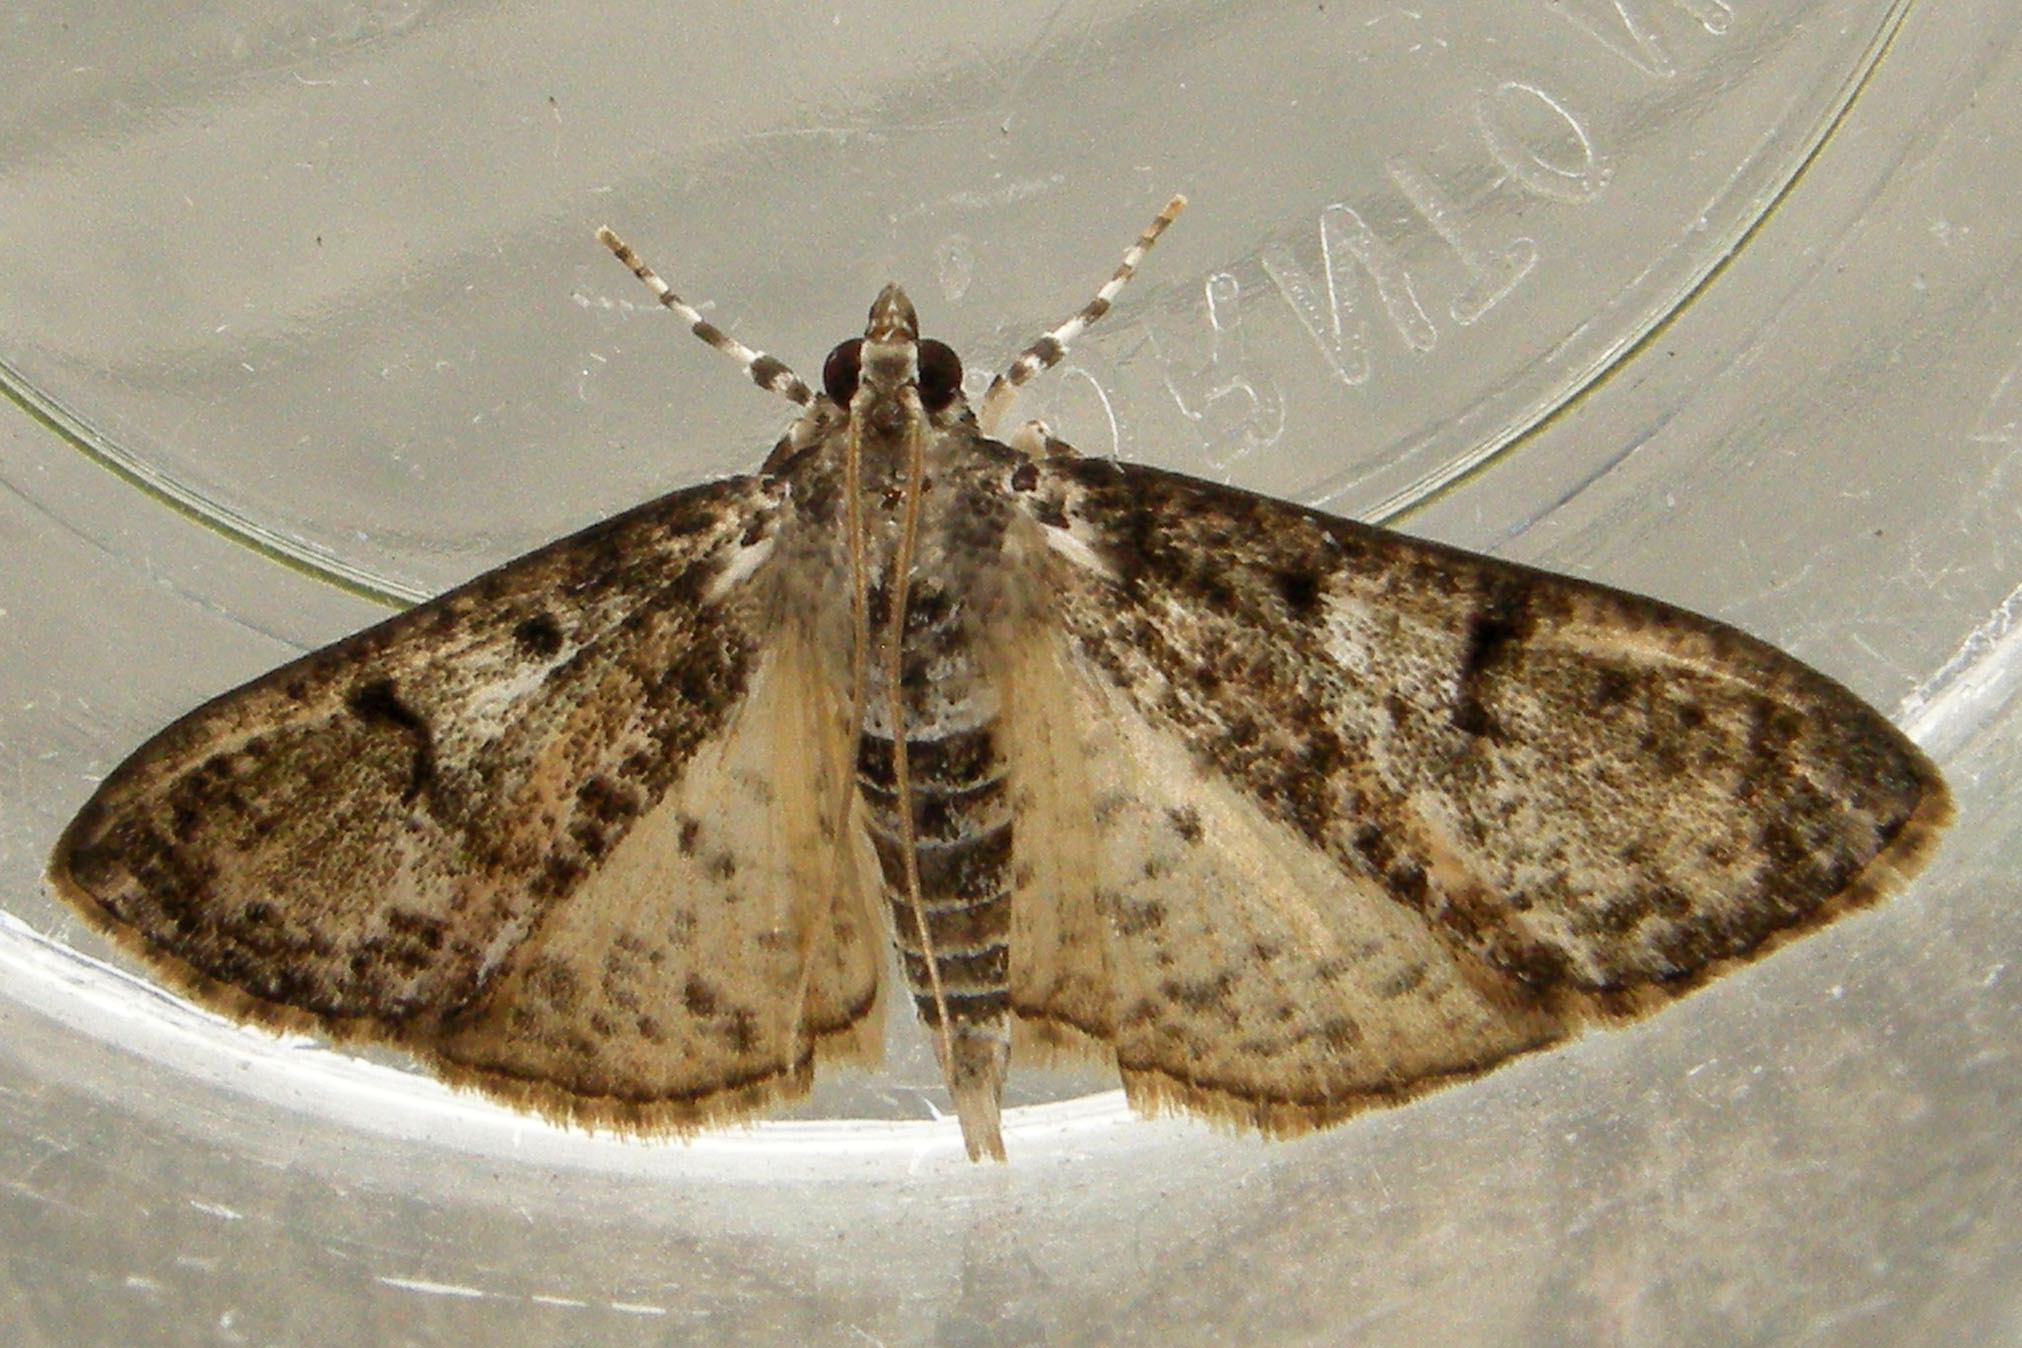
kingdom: Animalia
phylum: Arthropoda
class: Insecta
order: Lepidoptera
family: Crambidae
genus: Palpita
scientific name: Palpita magniferalis
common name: Splendid palpita moth
